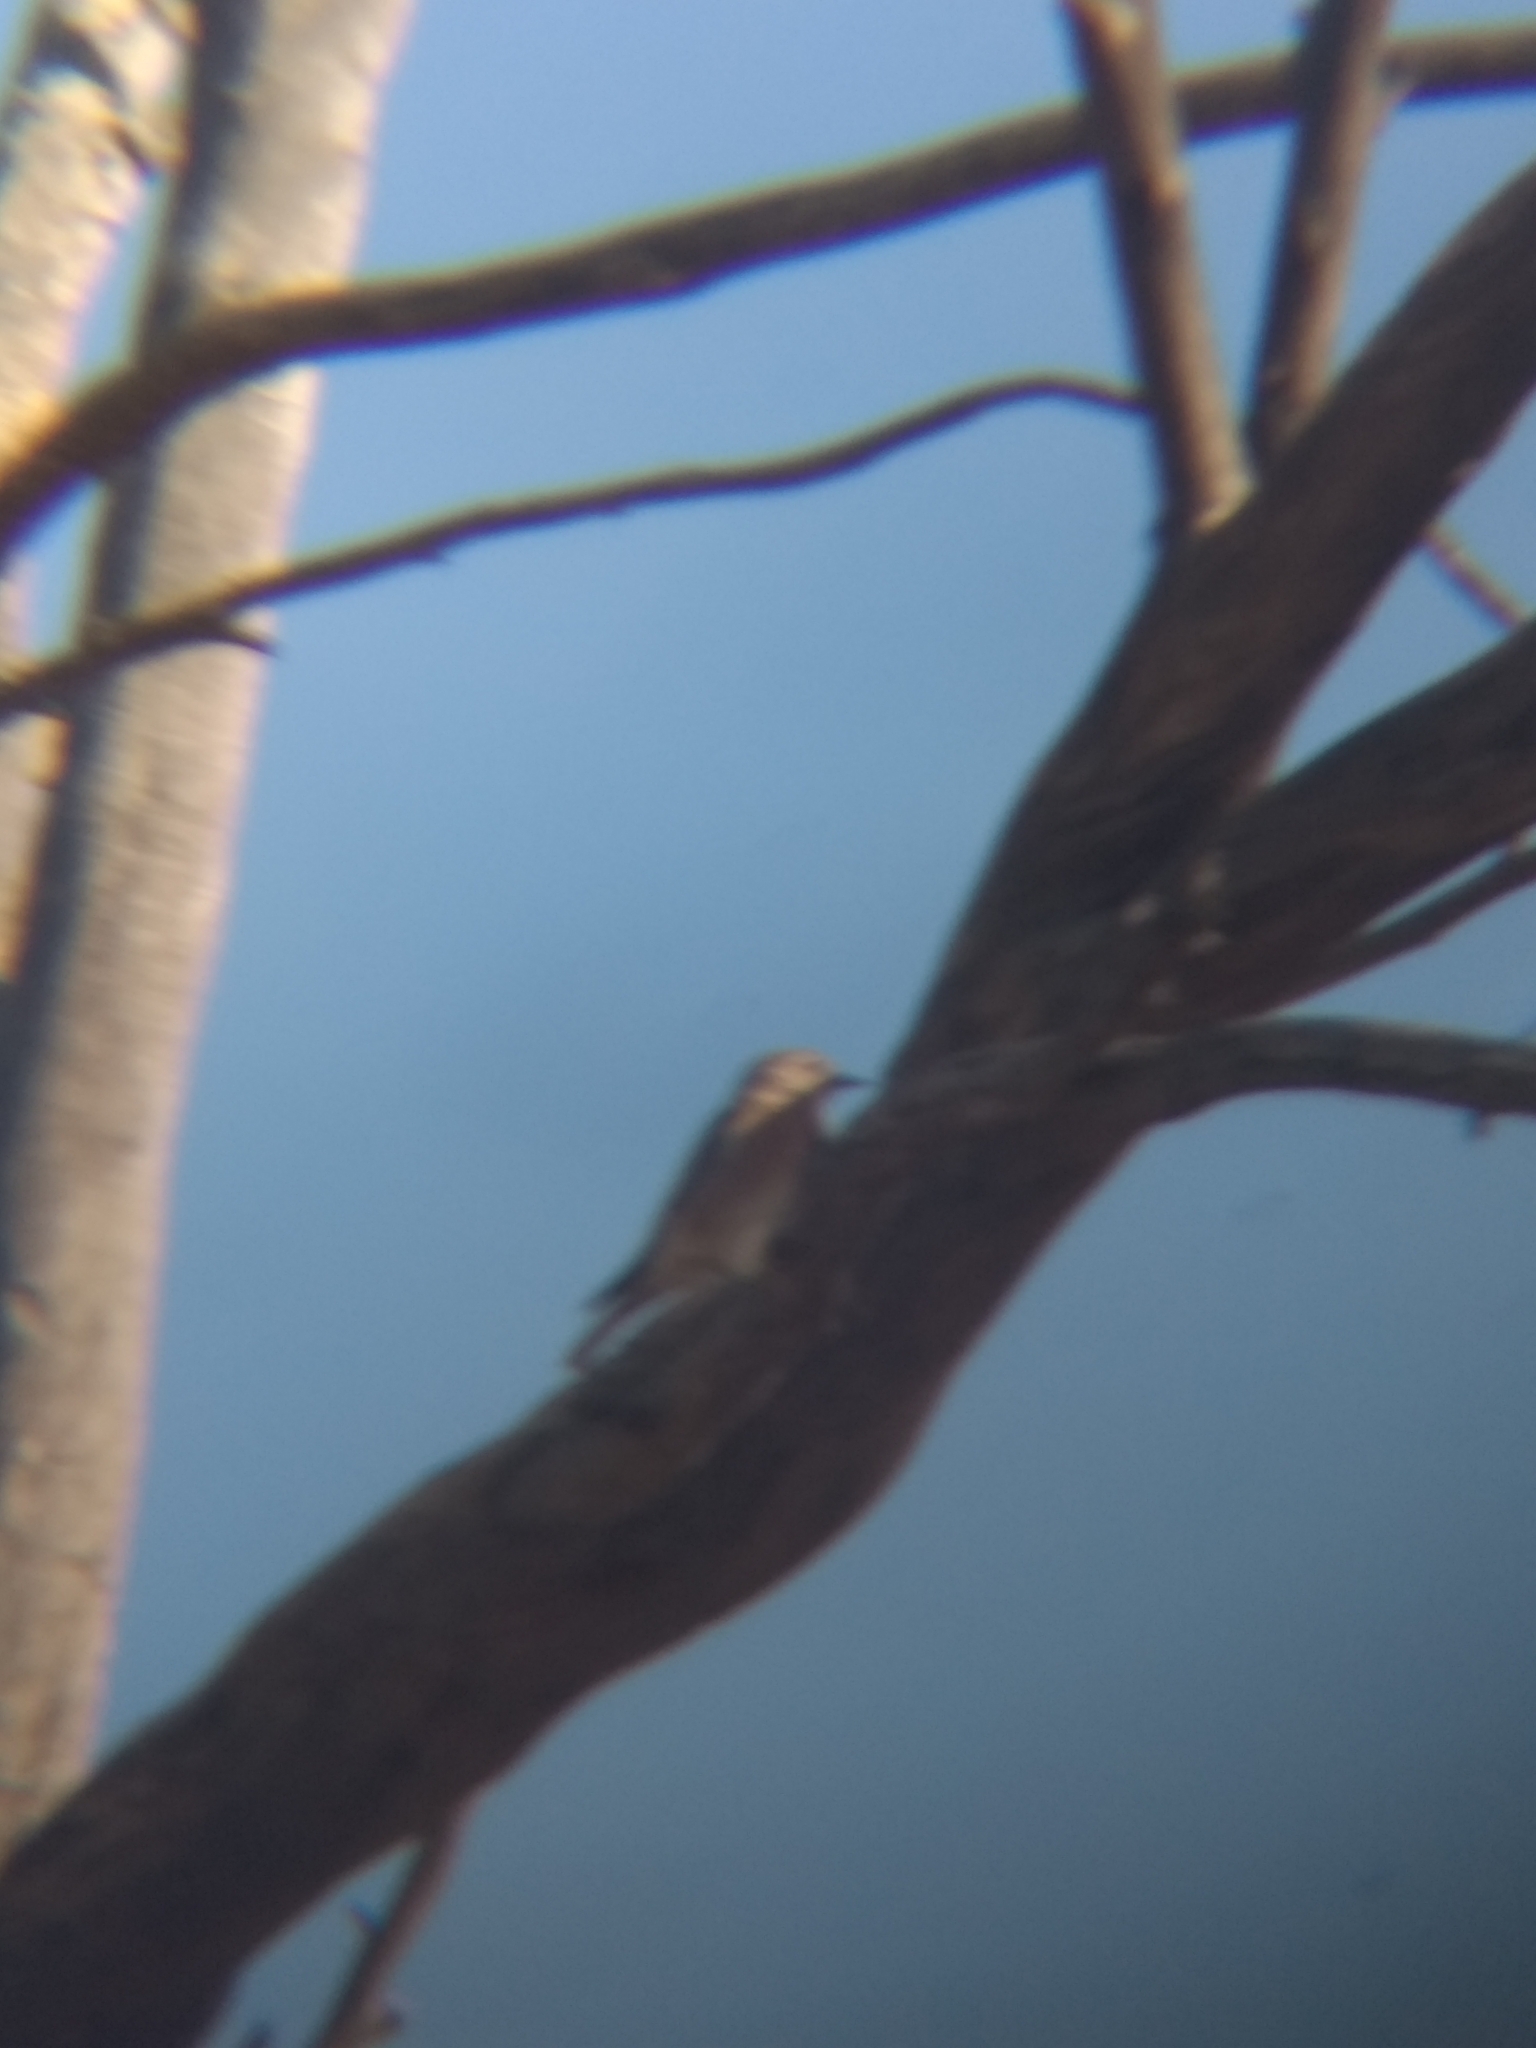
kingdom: Animalia
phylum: Chordata
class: Aves
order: Passeriformes
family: Turdidae
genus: Sialia
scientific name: Sialia mexicana
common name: Western bluebird
